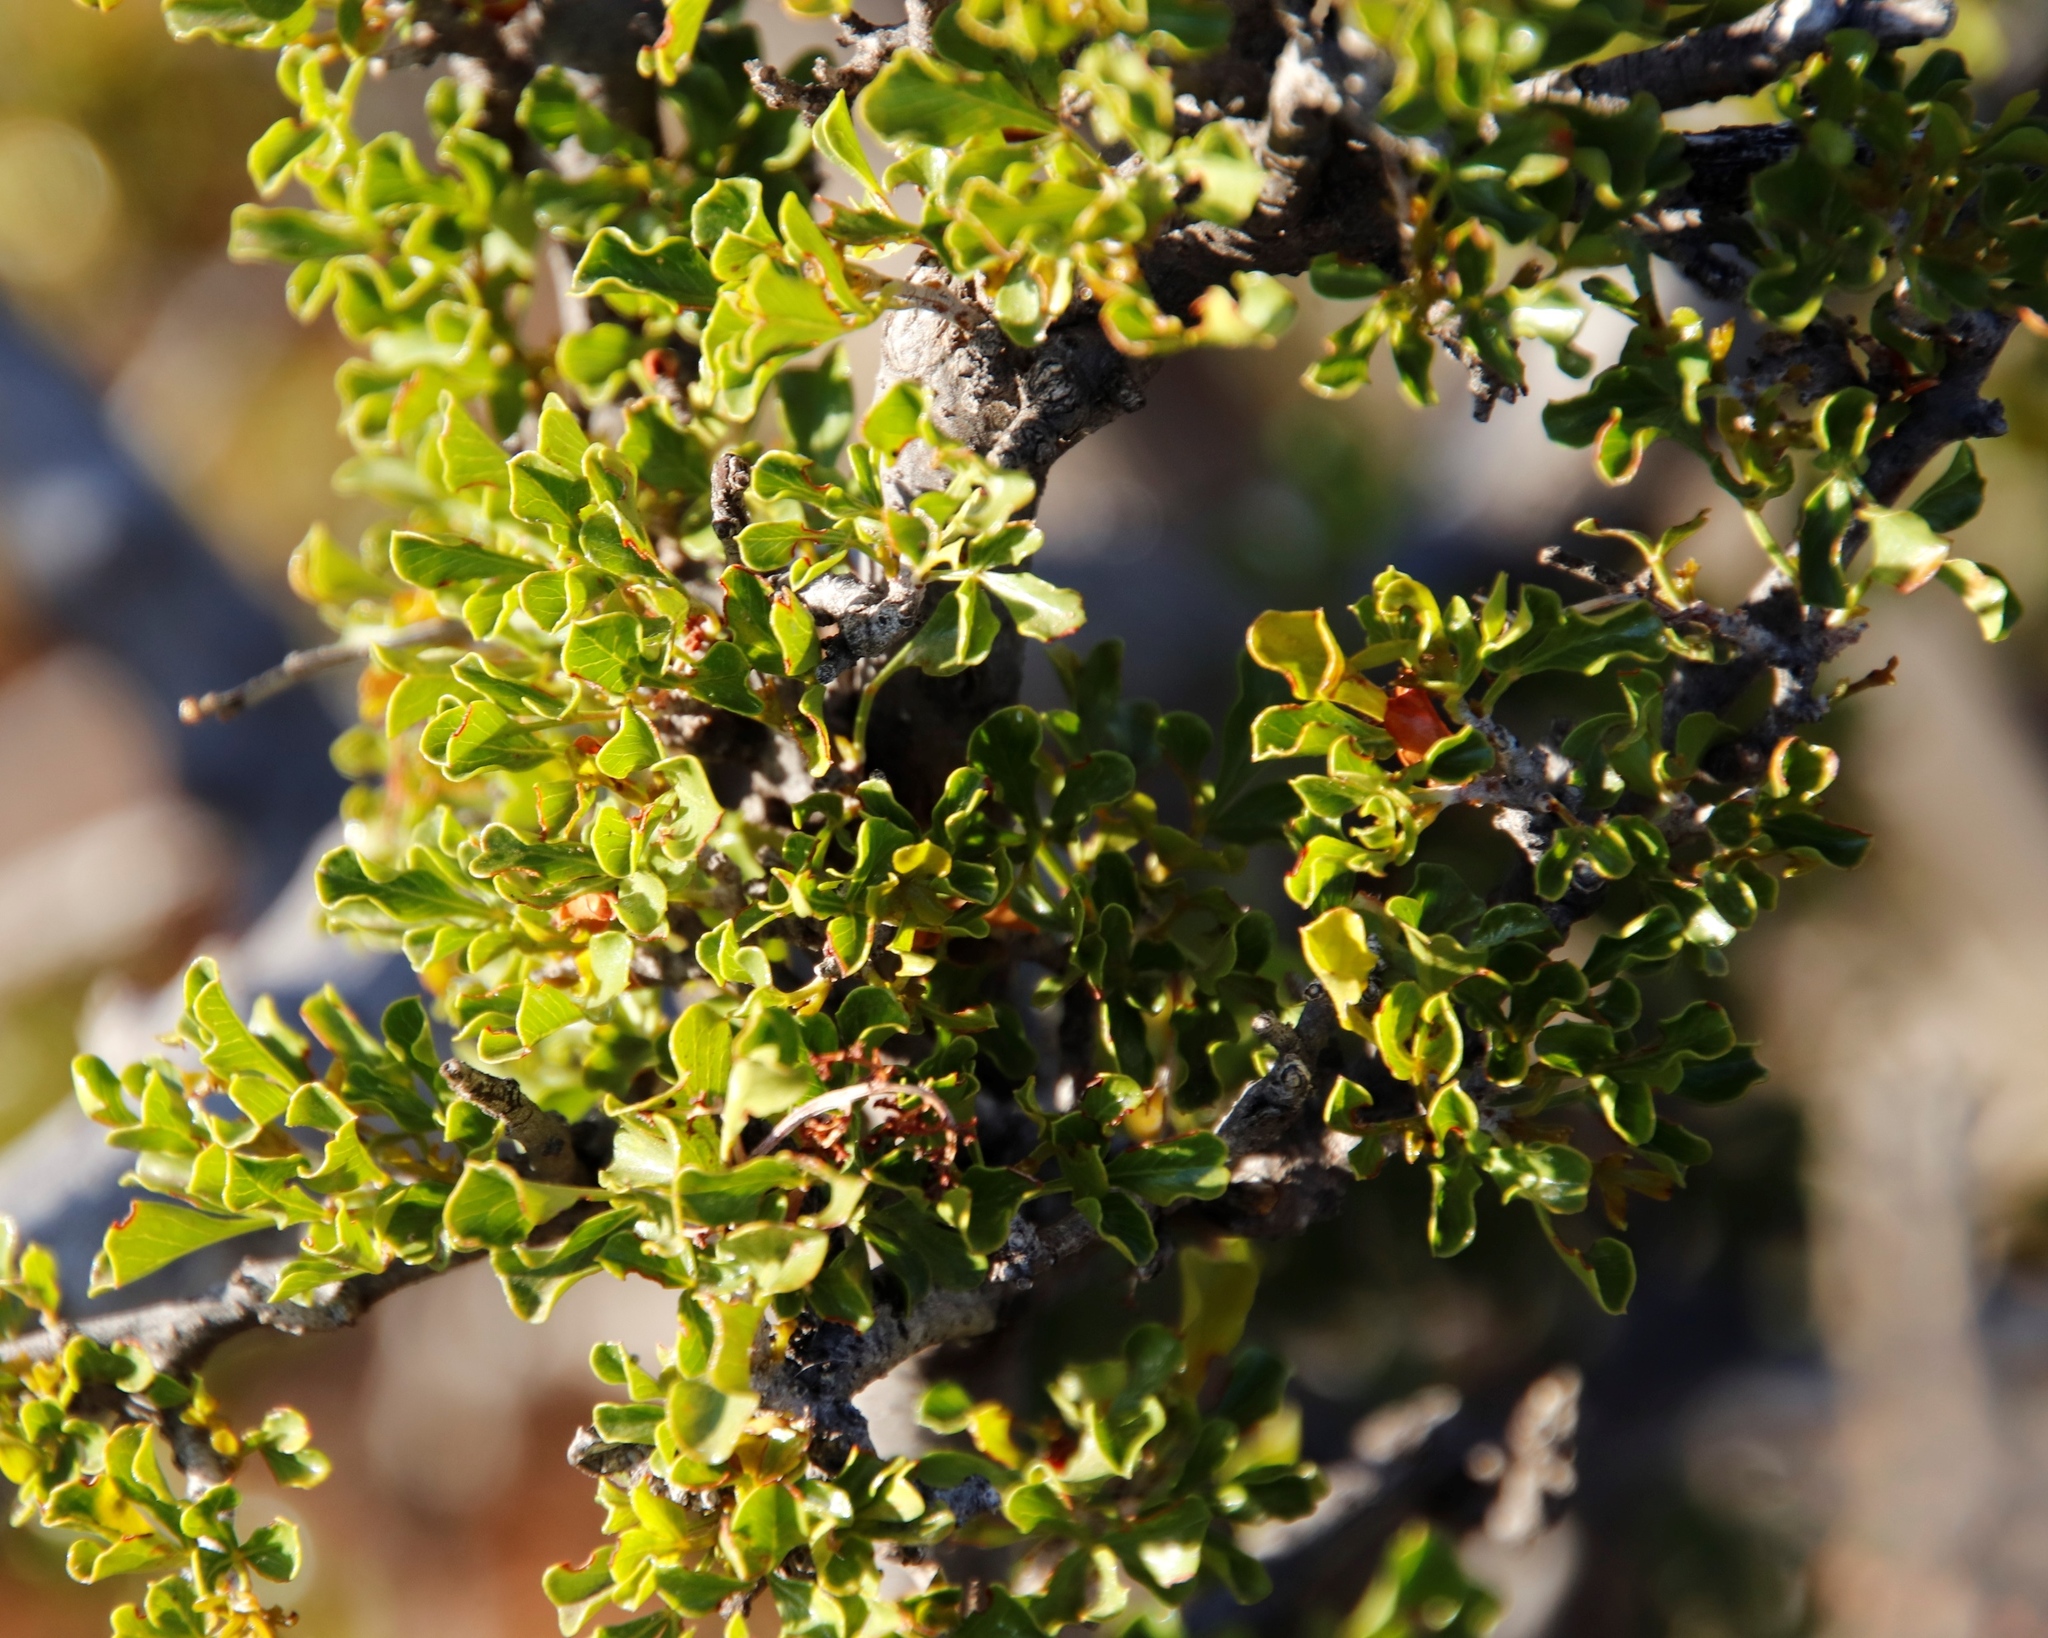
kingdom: Plantae
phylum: Tracheophyta
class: Magnoliopsida
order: Sapindales
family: Anacardiaceae
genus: Searsia
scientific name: Searsia burchellii
